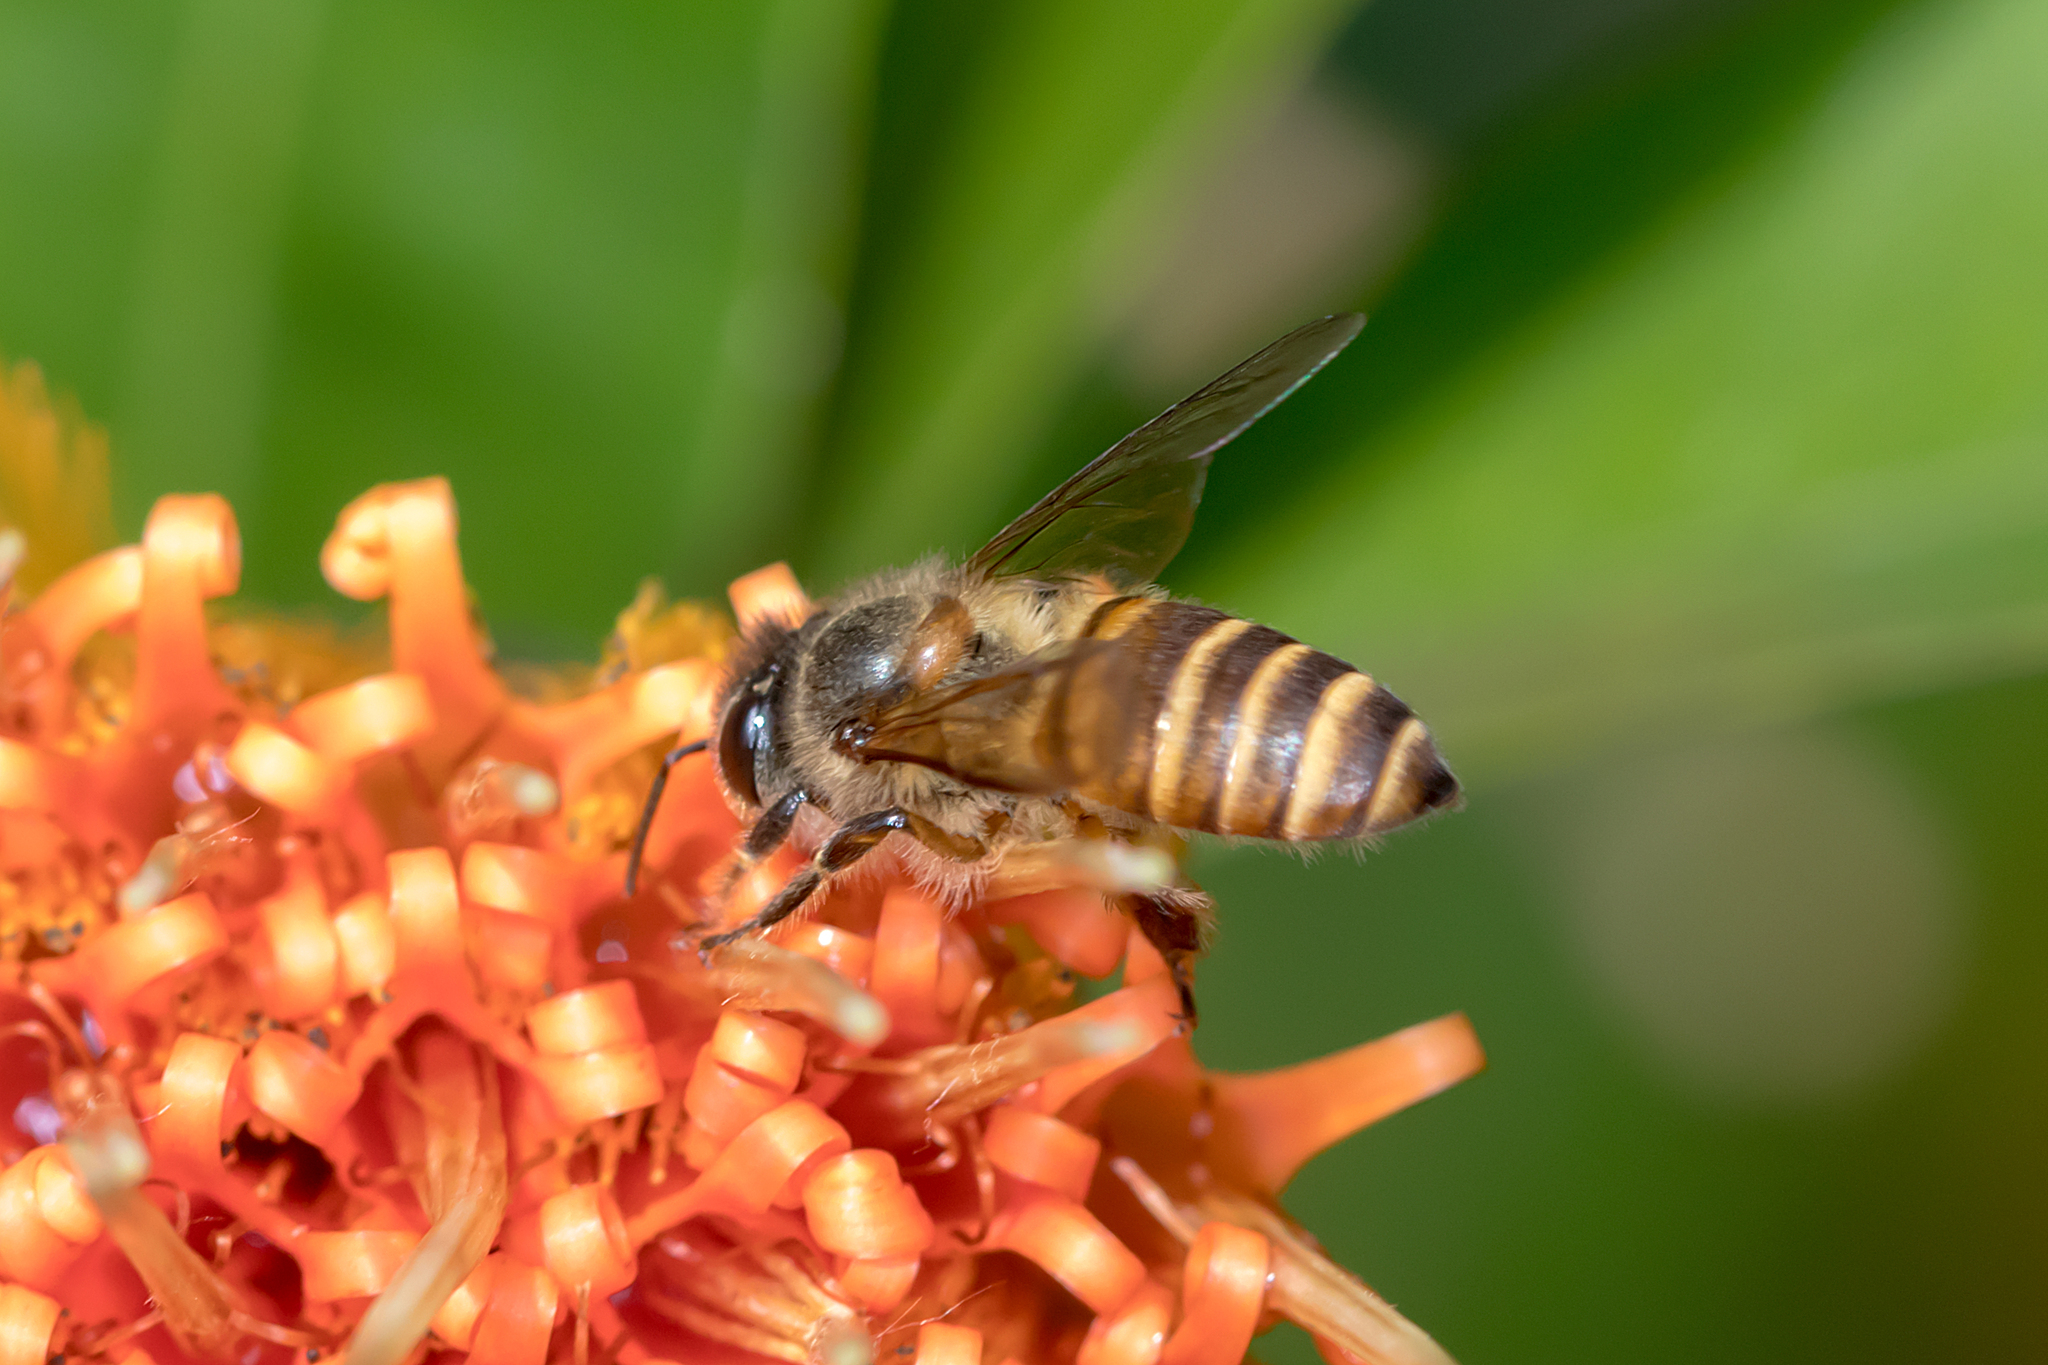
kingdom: Animalia
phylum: Arthropoda
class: Insecta
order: Hymenoptera
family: Apidae
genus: Apis
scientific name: Apis cerana
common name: Honey bee
